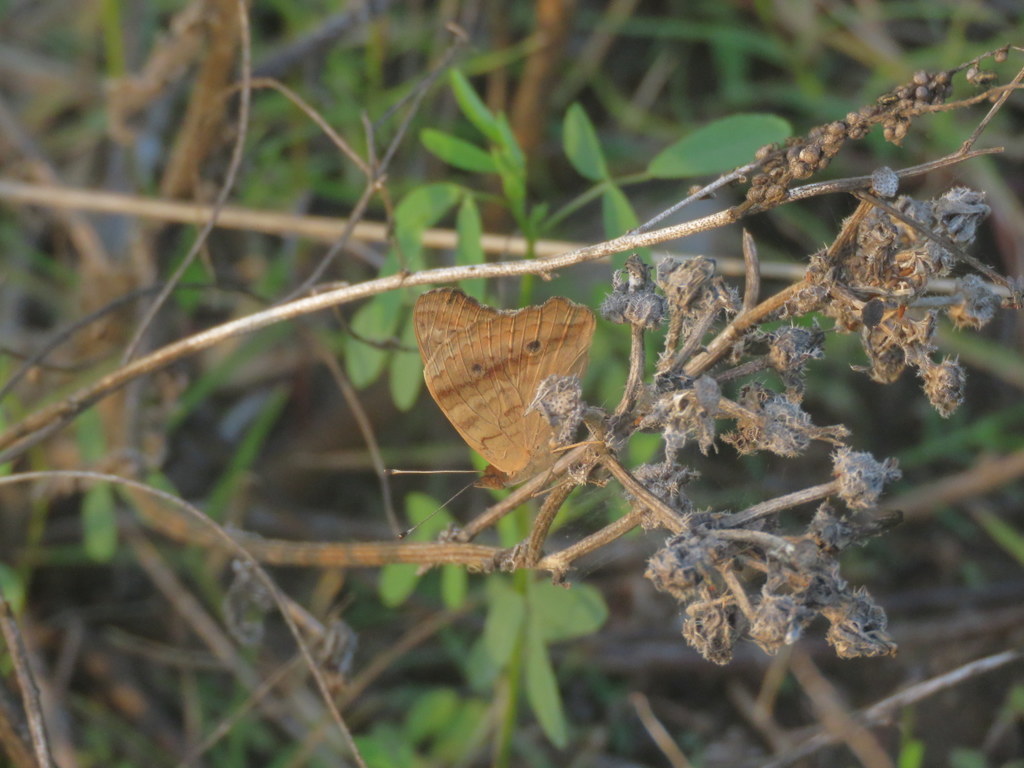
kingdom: Animalia
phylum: Arthropoda
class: Insecta
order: Lepidoptera
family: Nymphalidae
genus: Junonia
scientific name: Junonia lavinia
